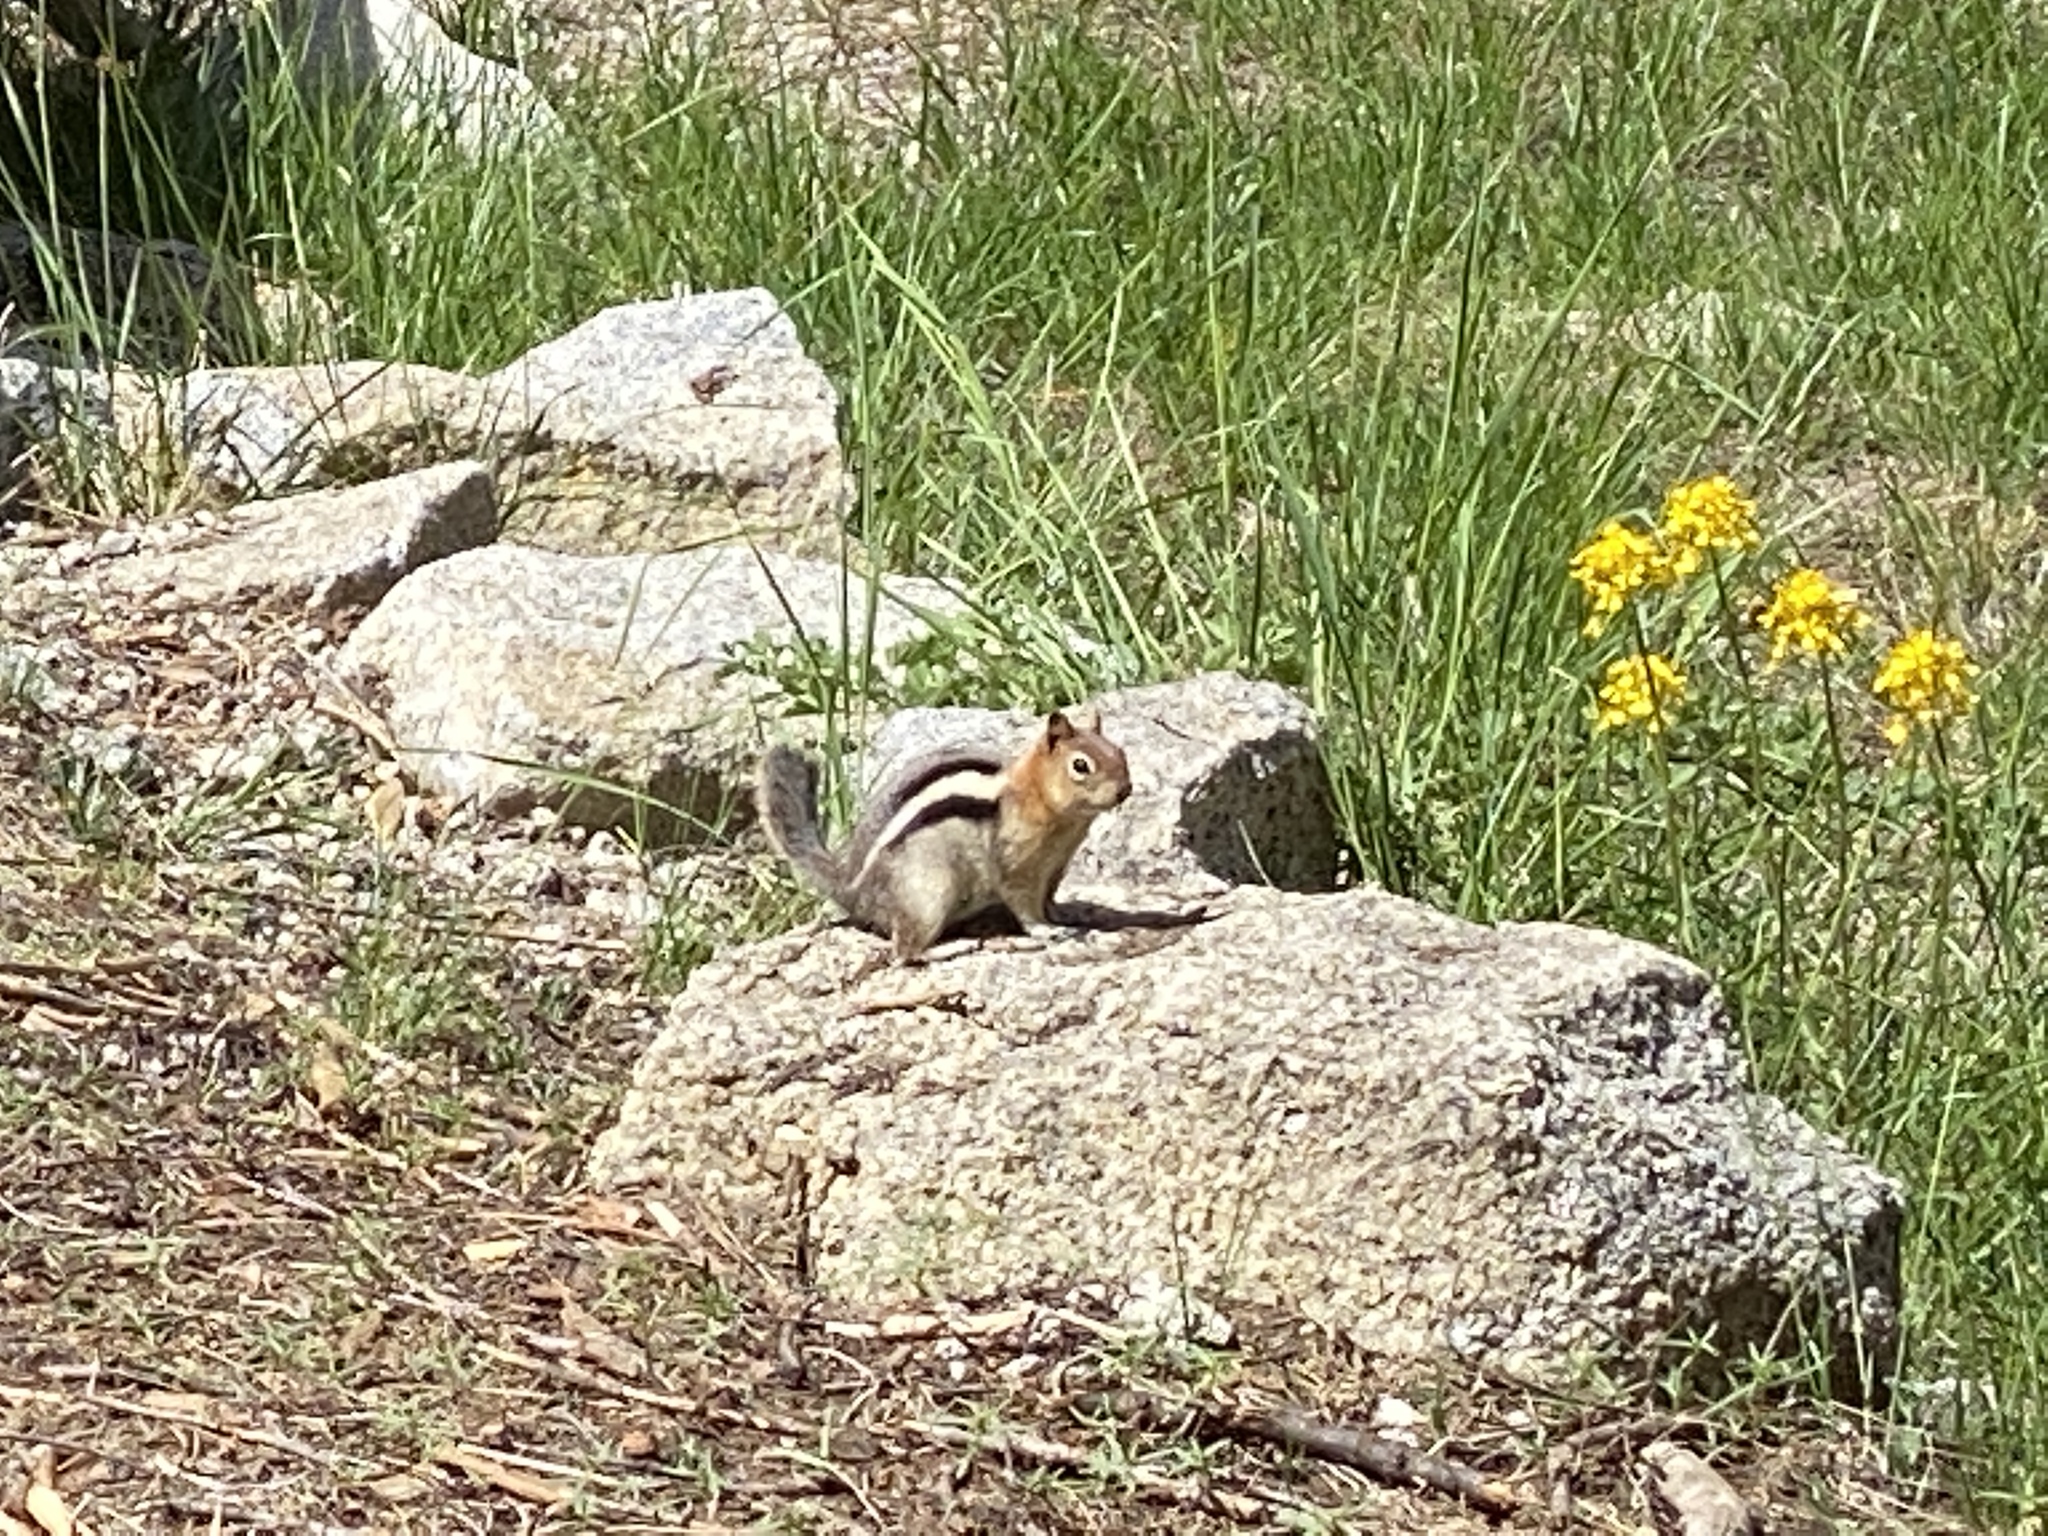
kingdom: Animalia
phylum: Chordata
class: Mammalia
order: Rodentia
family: Sciuridae
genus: Callospermophilus
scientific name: Callospermophilus lateralis
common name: Golden-mantled ground squirrel
